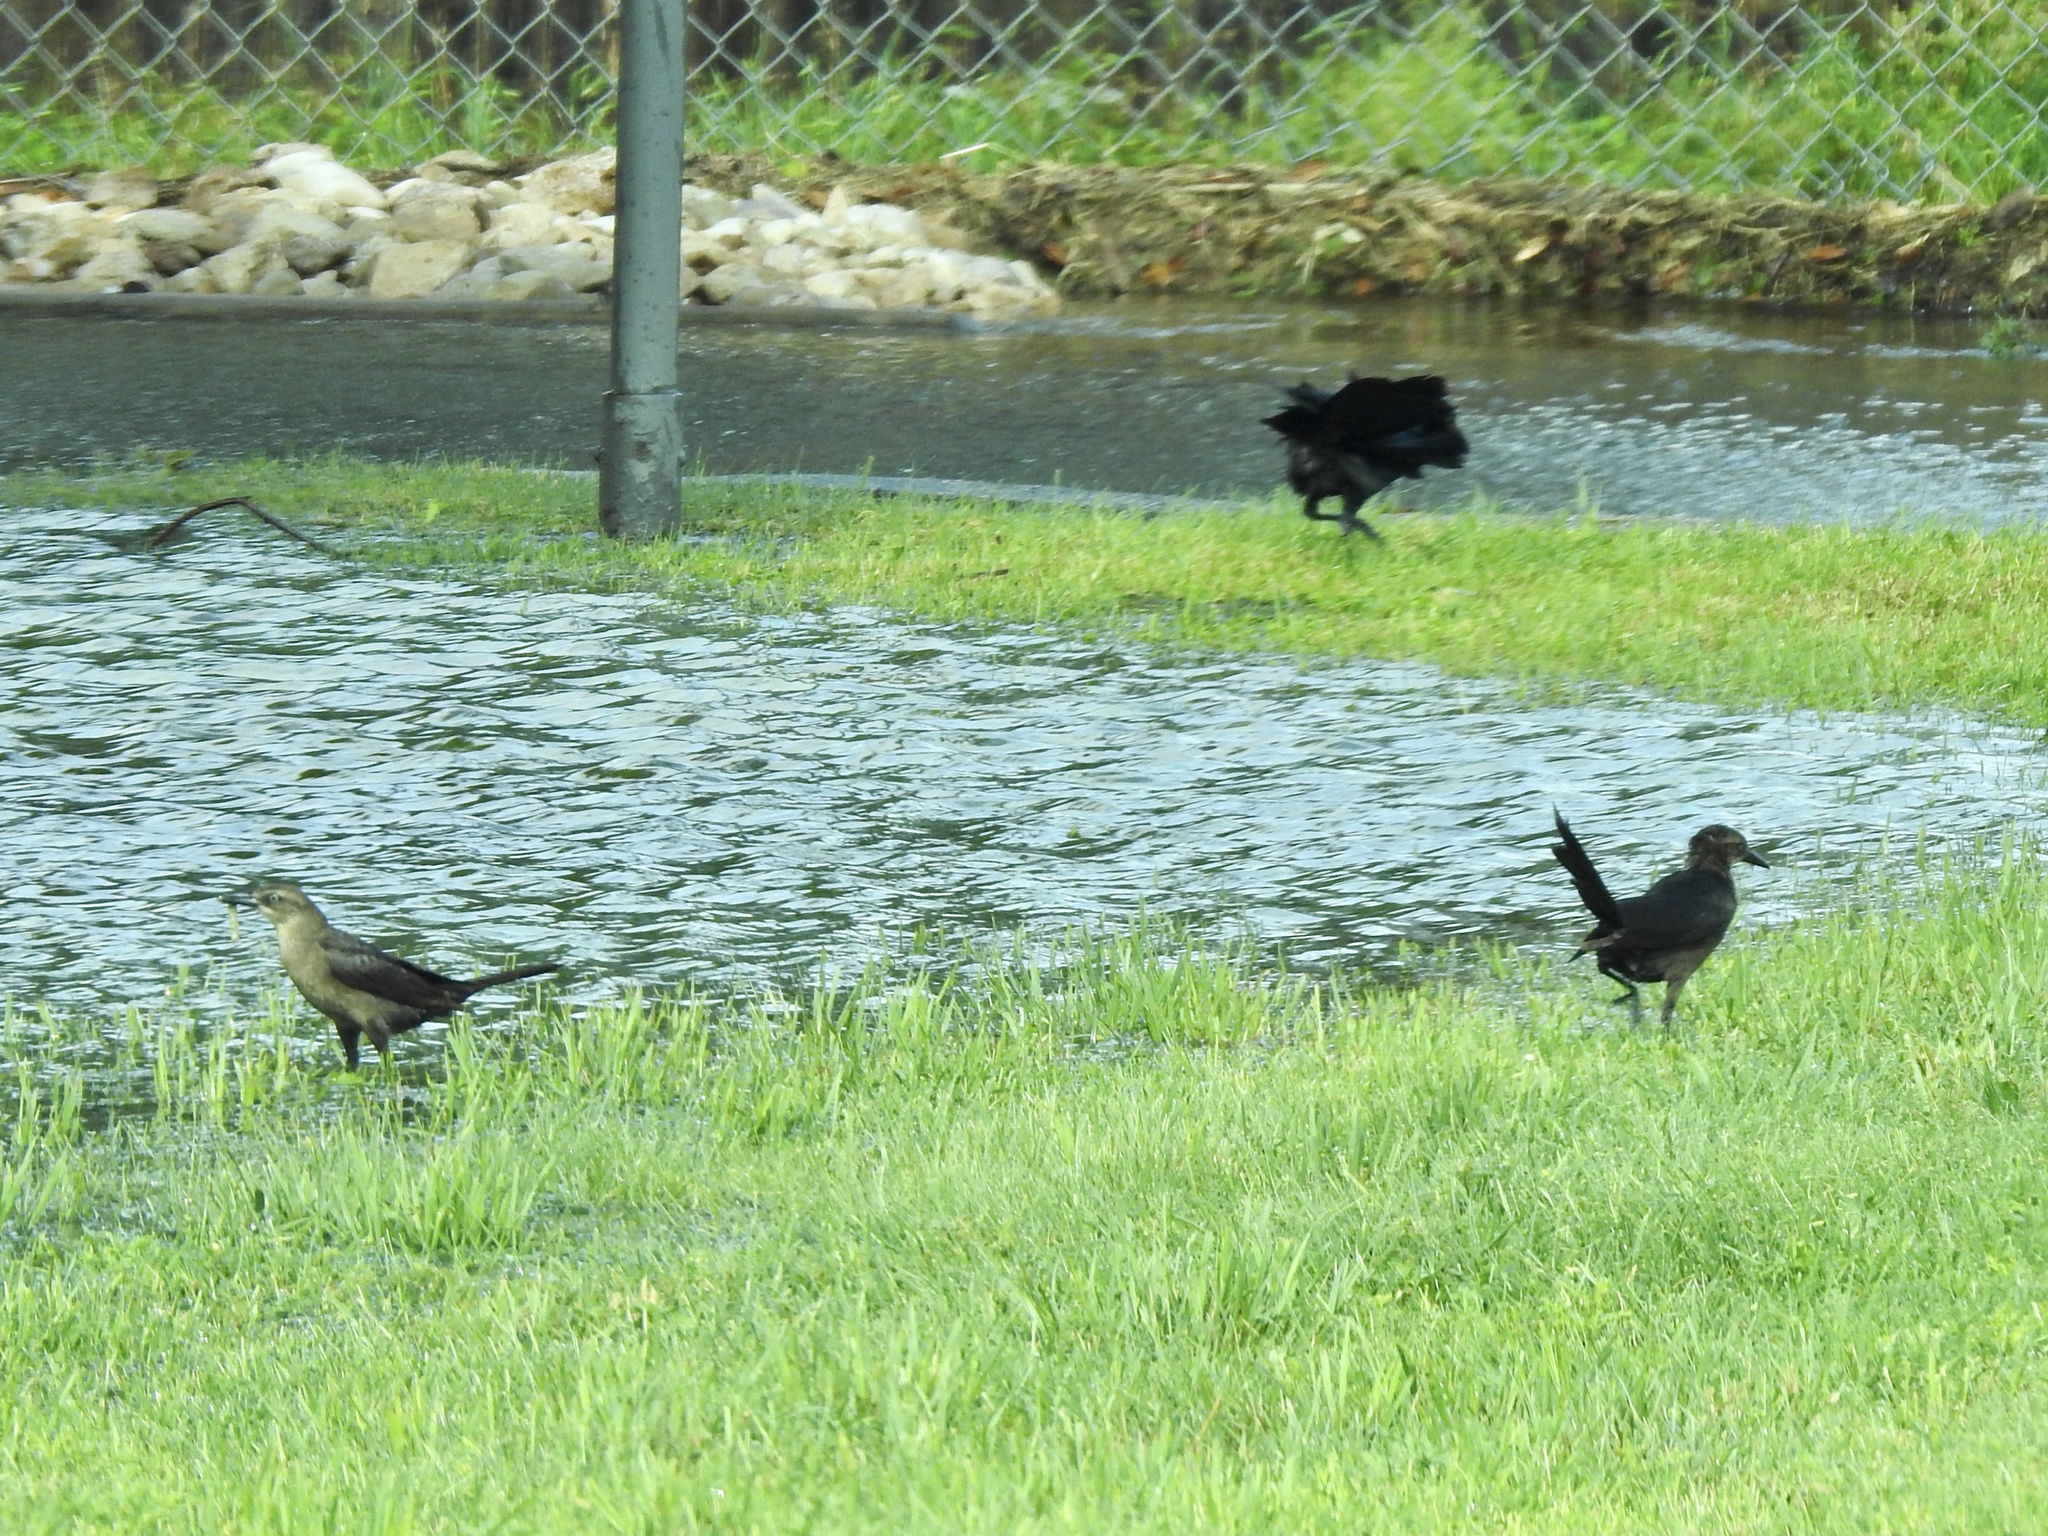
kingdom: Animalia
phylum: Chordata
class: Aves
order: Passeriformes
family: Icteridae
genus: Quiscalus
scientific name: Quiscalus mexicanus
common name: Great-tailed grackle
